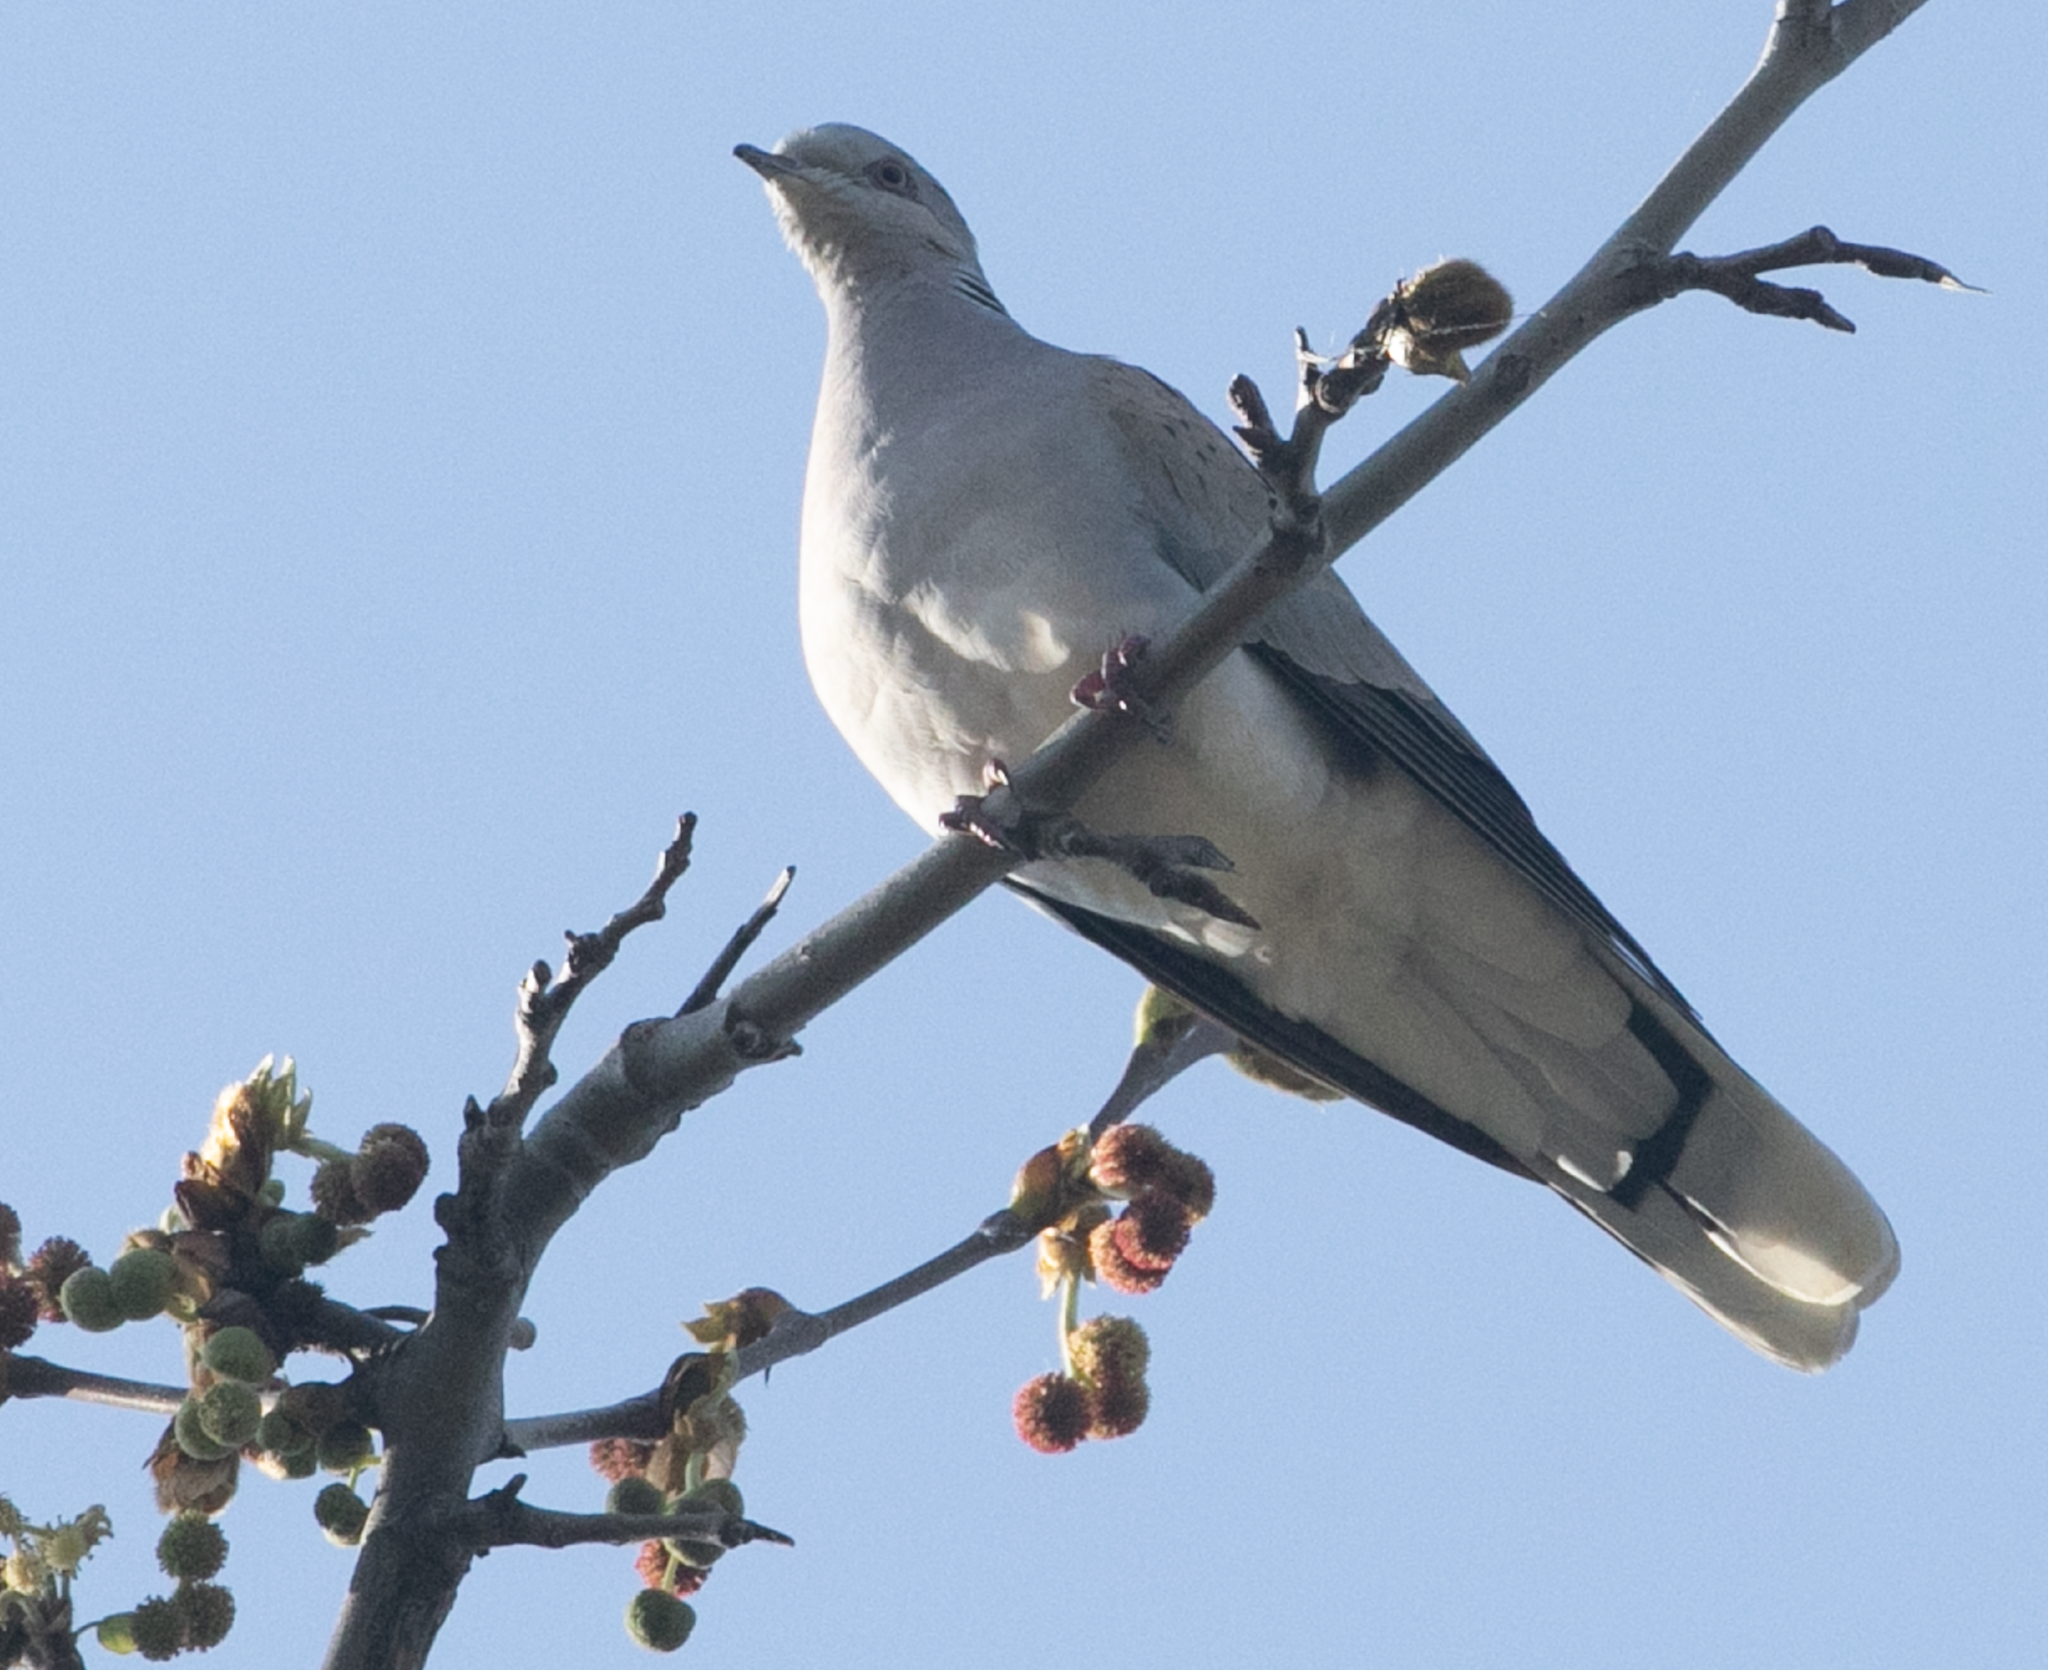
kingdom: Animalia
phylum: Chordata
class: Aves
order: Columbiformes
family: Columbidae
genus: Streptopelia
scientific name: Streptopelia turtur
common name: European turtle dove
